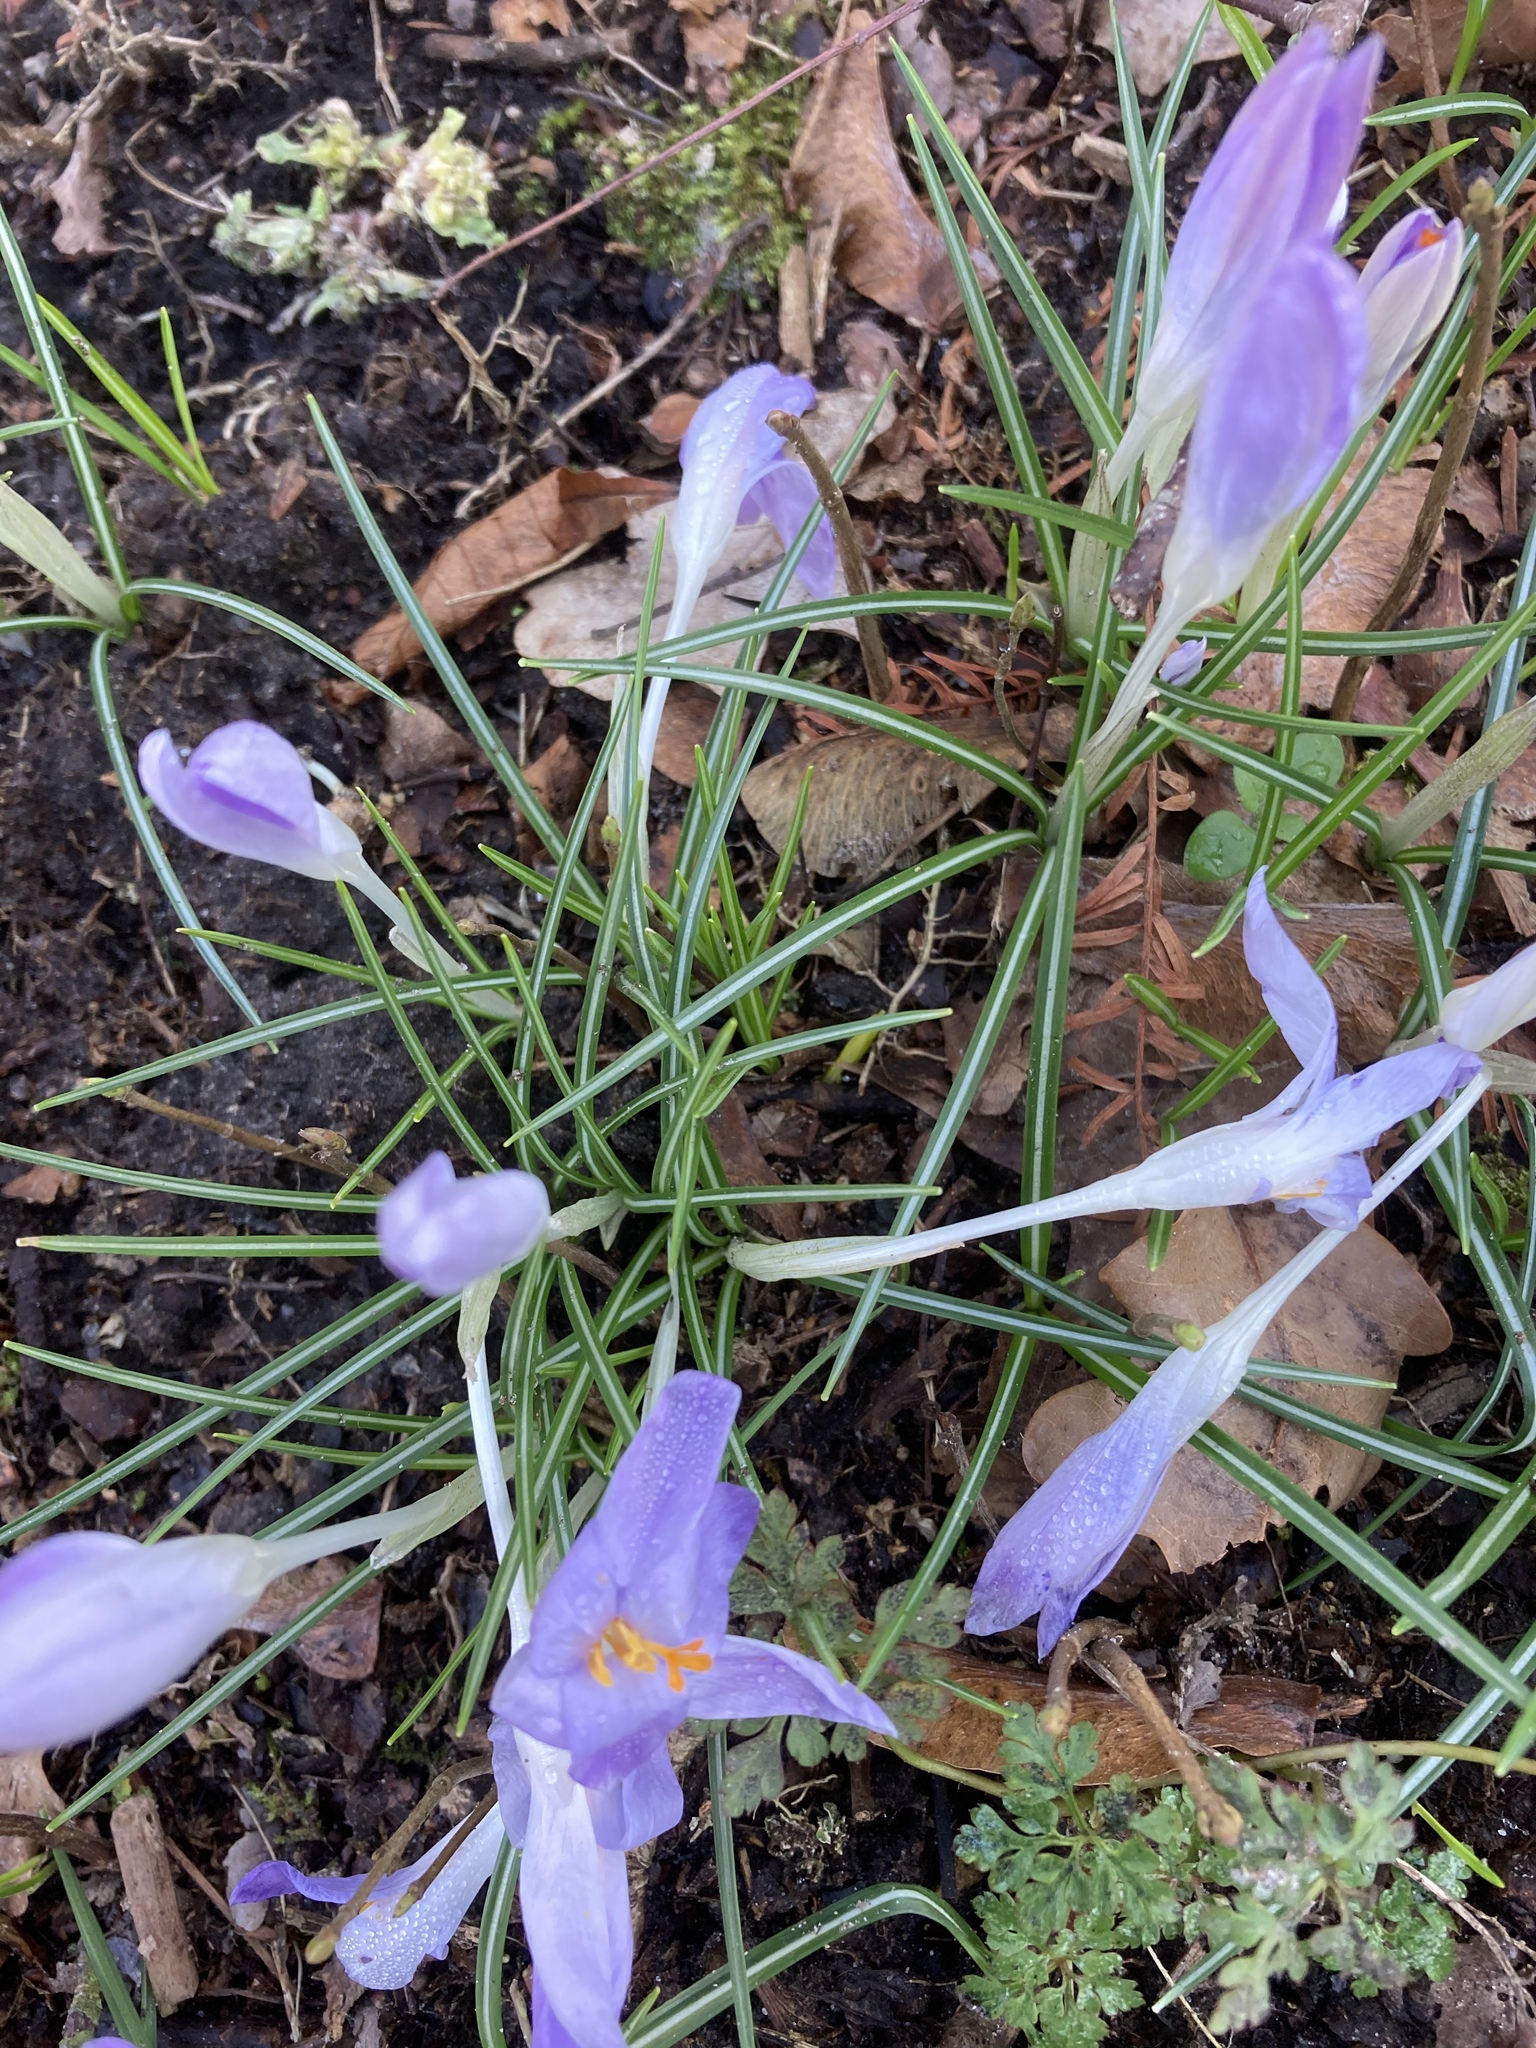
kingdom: Plantae
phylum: Tracheophyta
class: Liliopsida
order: Asparagales
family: Iridaceae
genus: Crocus
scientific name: Crocus tommasinianus
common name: Early crocus
